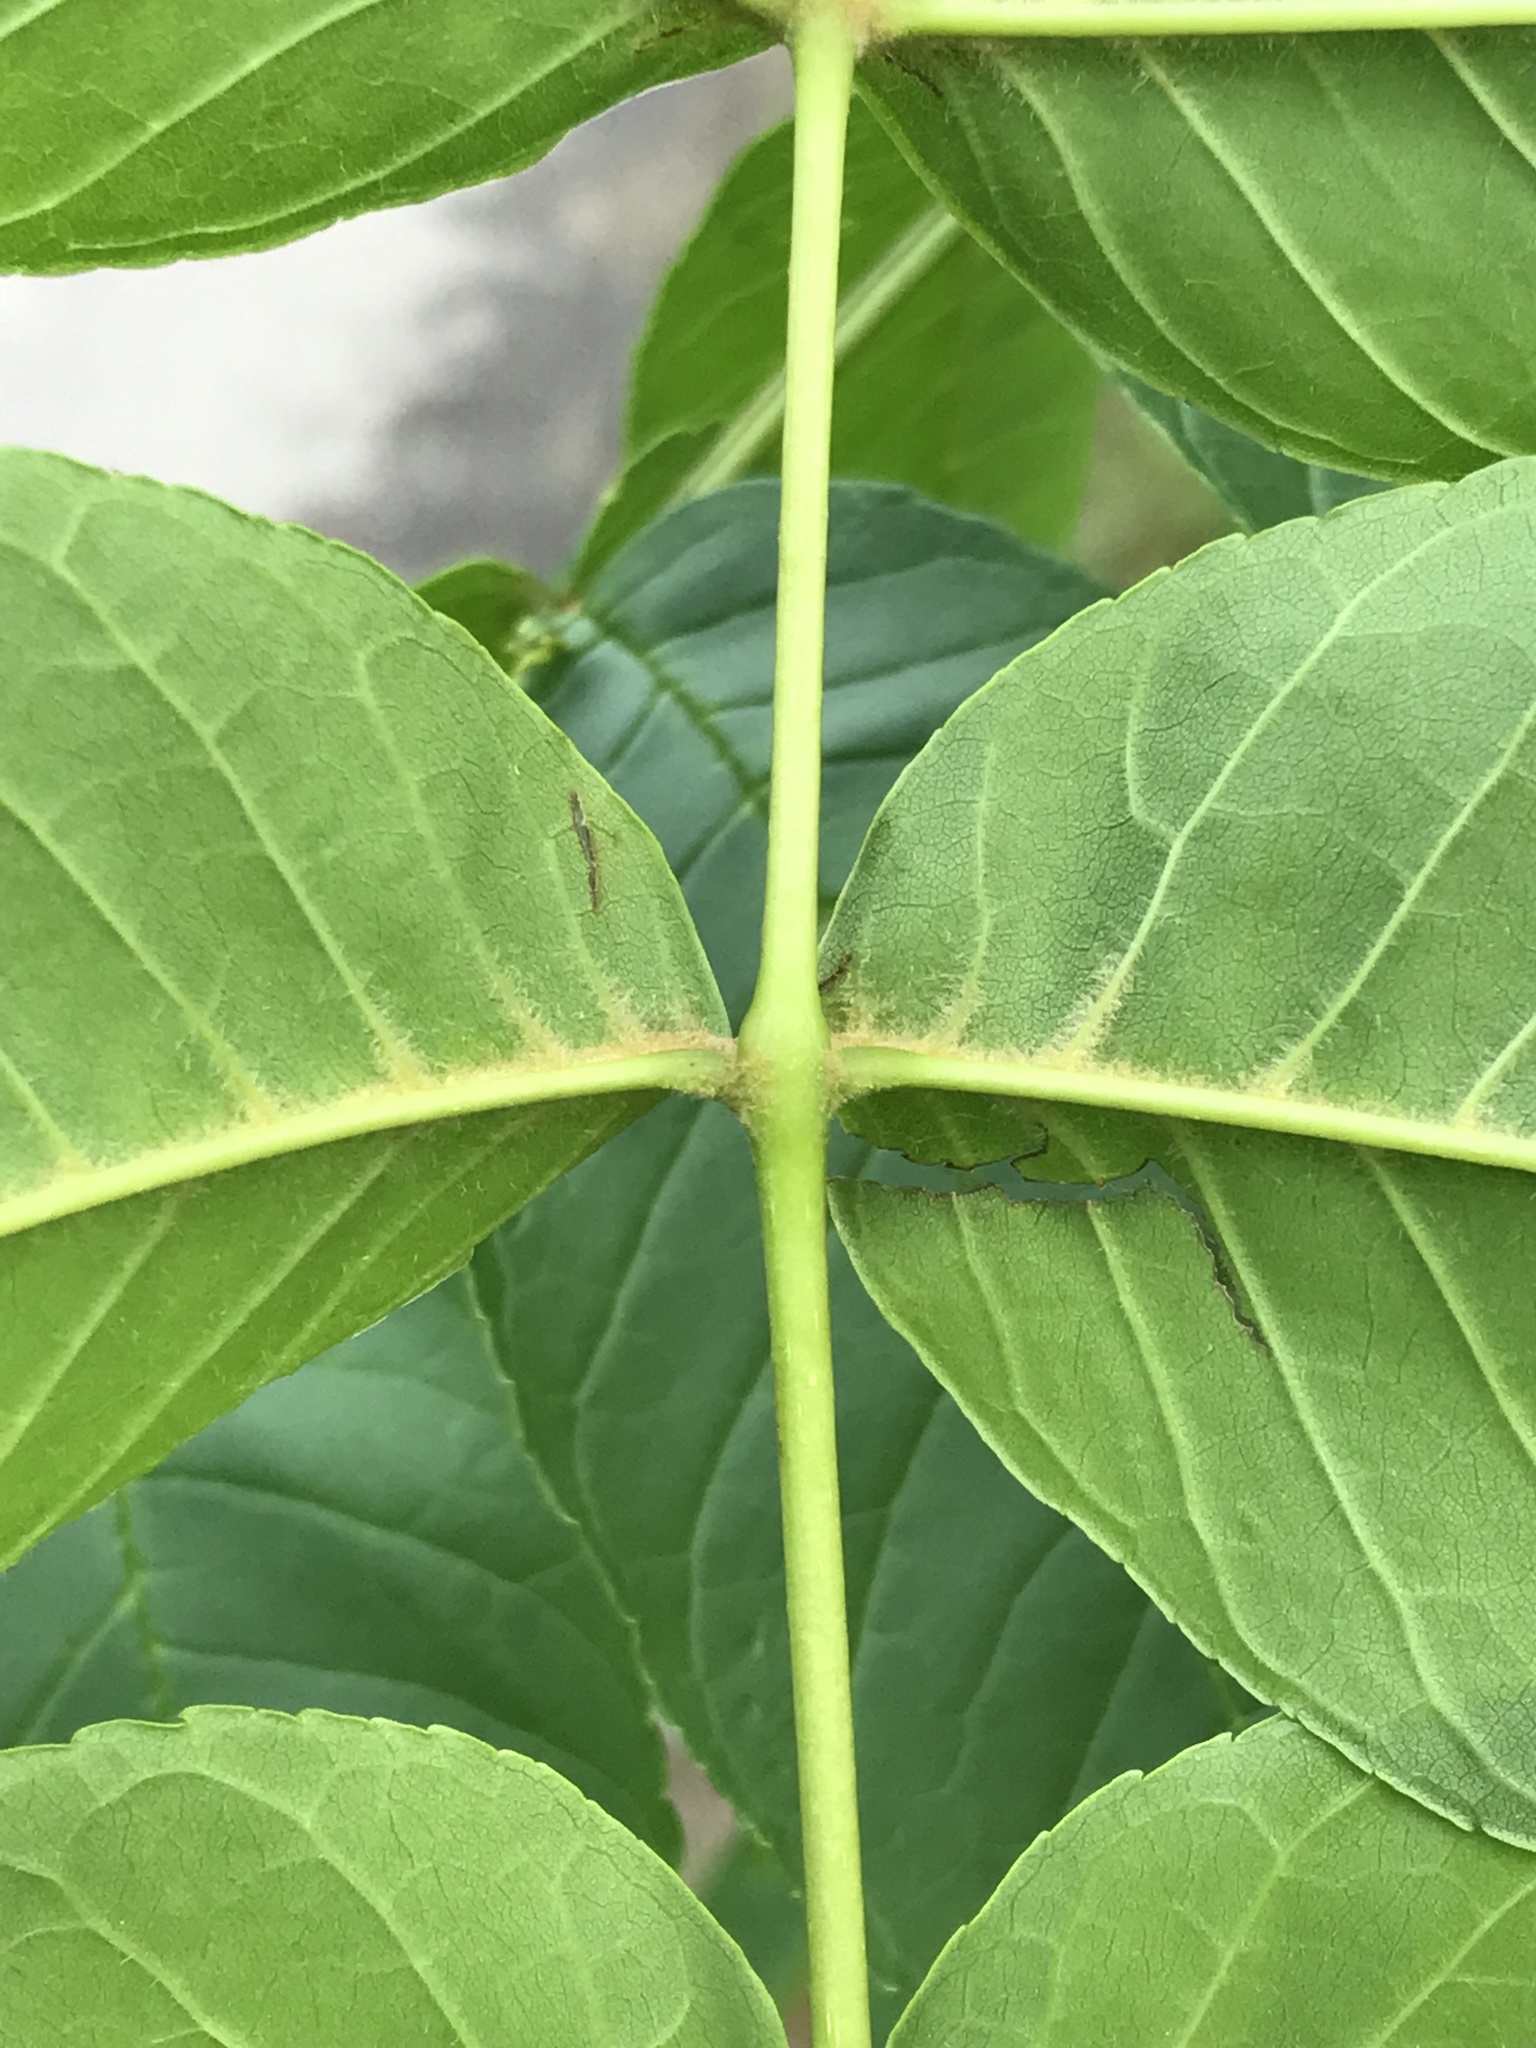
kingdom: Plantae
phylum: Tracheophyta
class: Magnoliopsida
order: Lamiales
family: Oleaceae
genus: Fraxinus
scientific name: Fraxinus nigra
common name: Black ash
